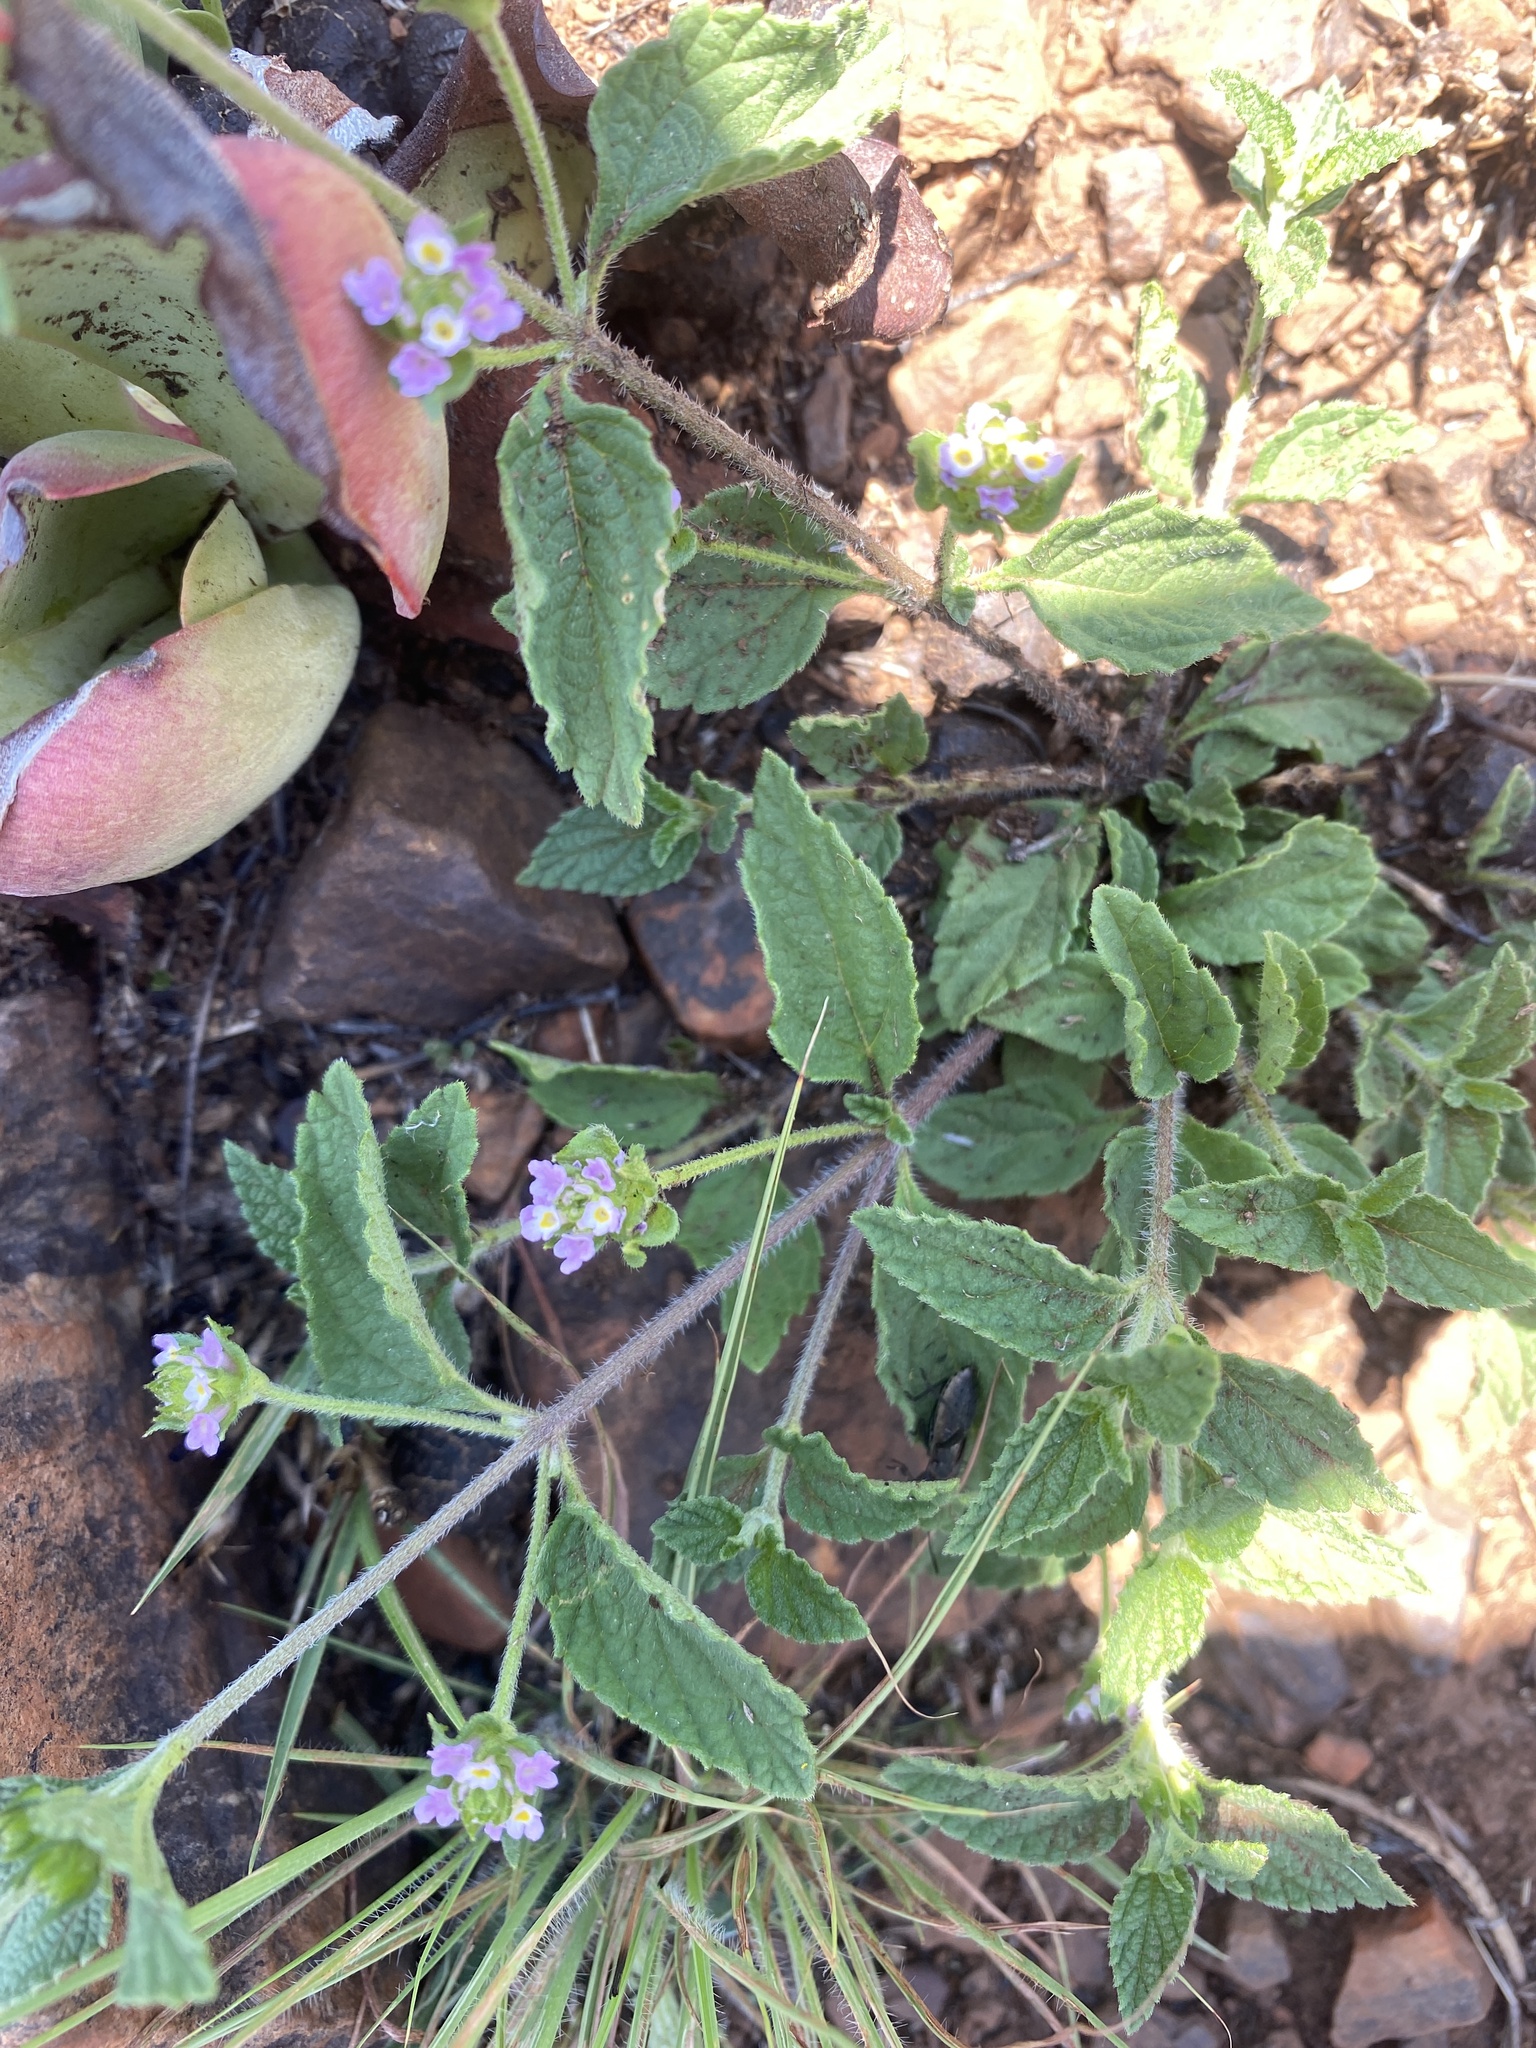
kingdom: Plantae
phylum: Tracheophyta
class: Magnoliopsida
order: Lamiales
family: Verbenaceae
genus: Lantana
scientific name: Lantana rugosa
